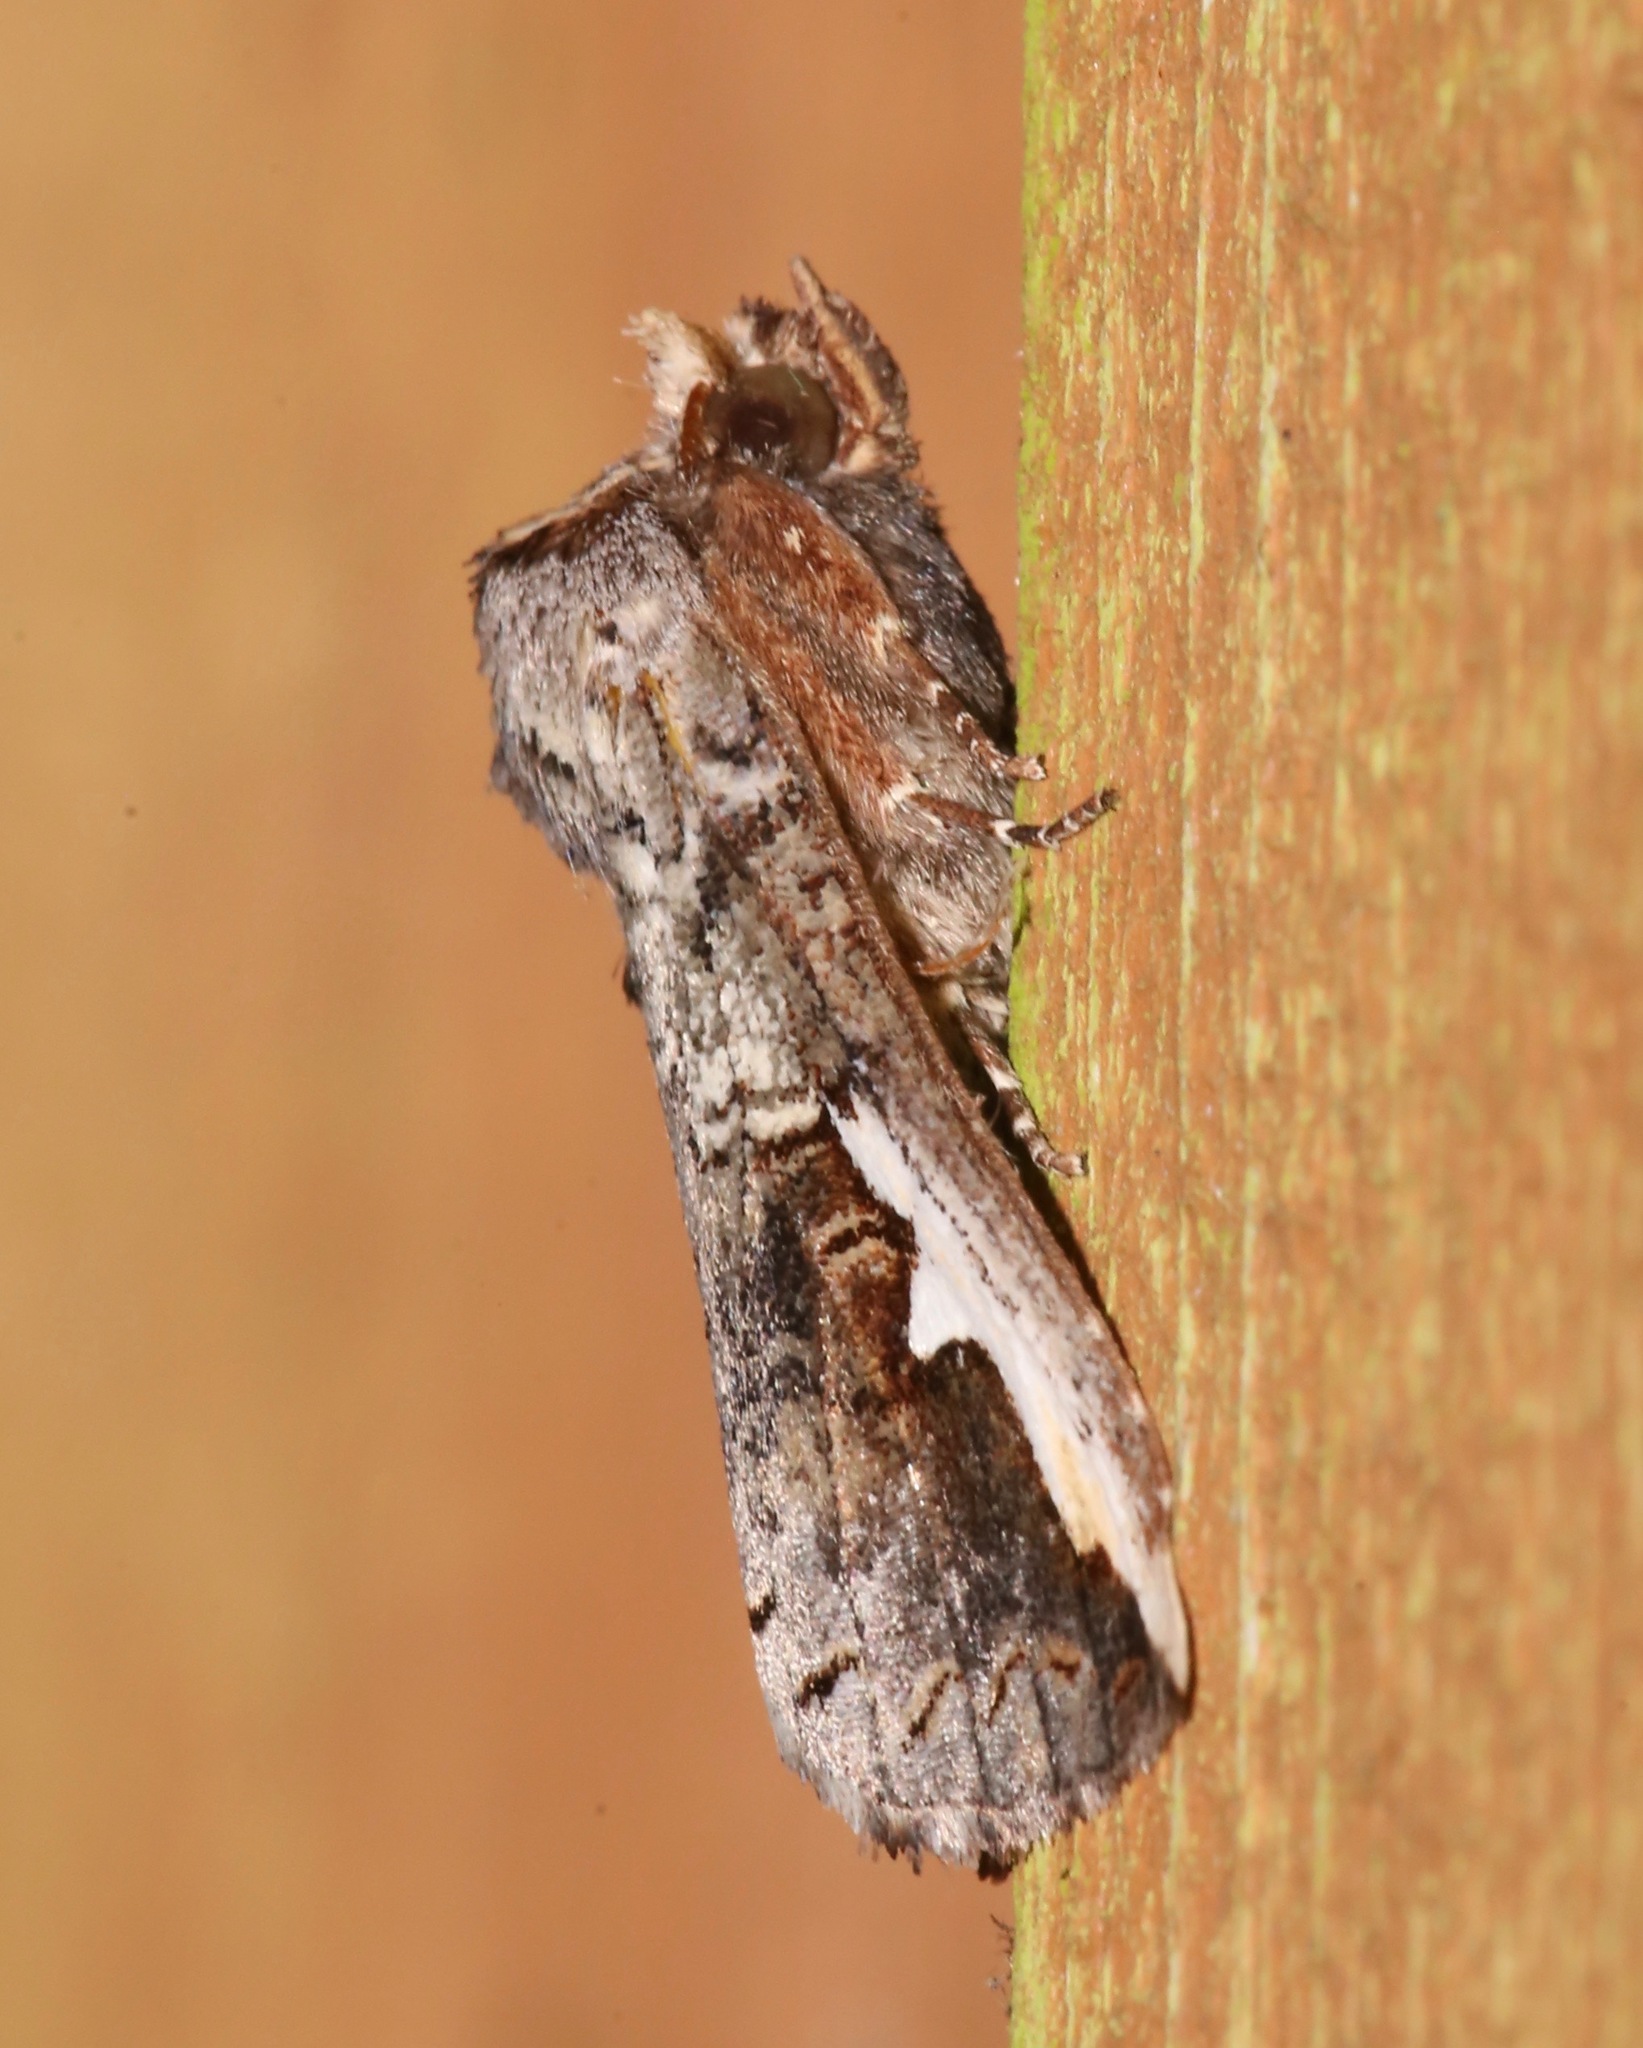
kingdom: Animalia
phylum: Arthropoda
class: Insecta
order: Lepidoptera
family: Notodontidae
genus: Symmerista
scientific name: Symmerista albifrons
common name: White-headed prominent
